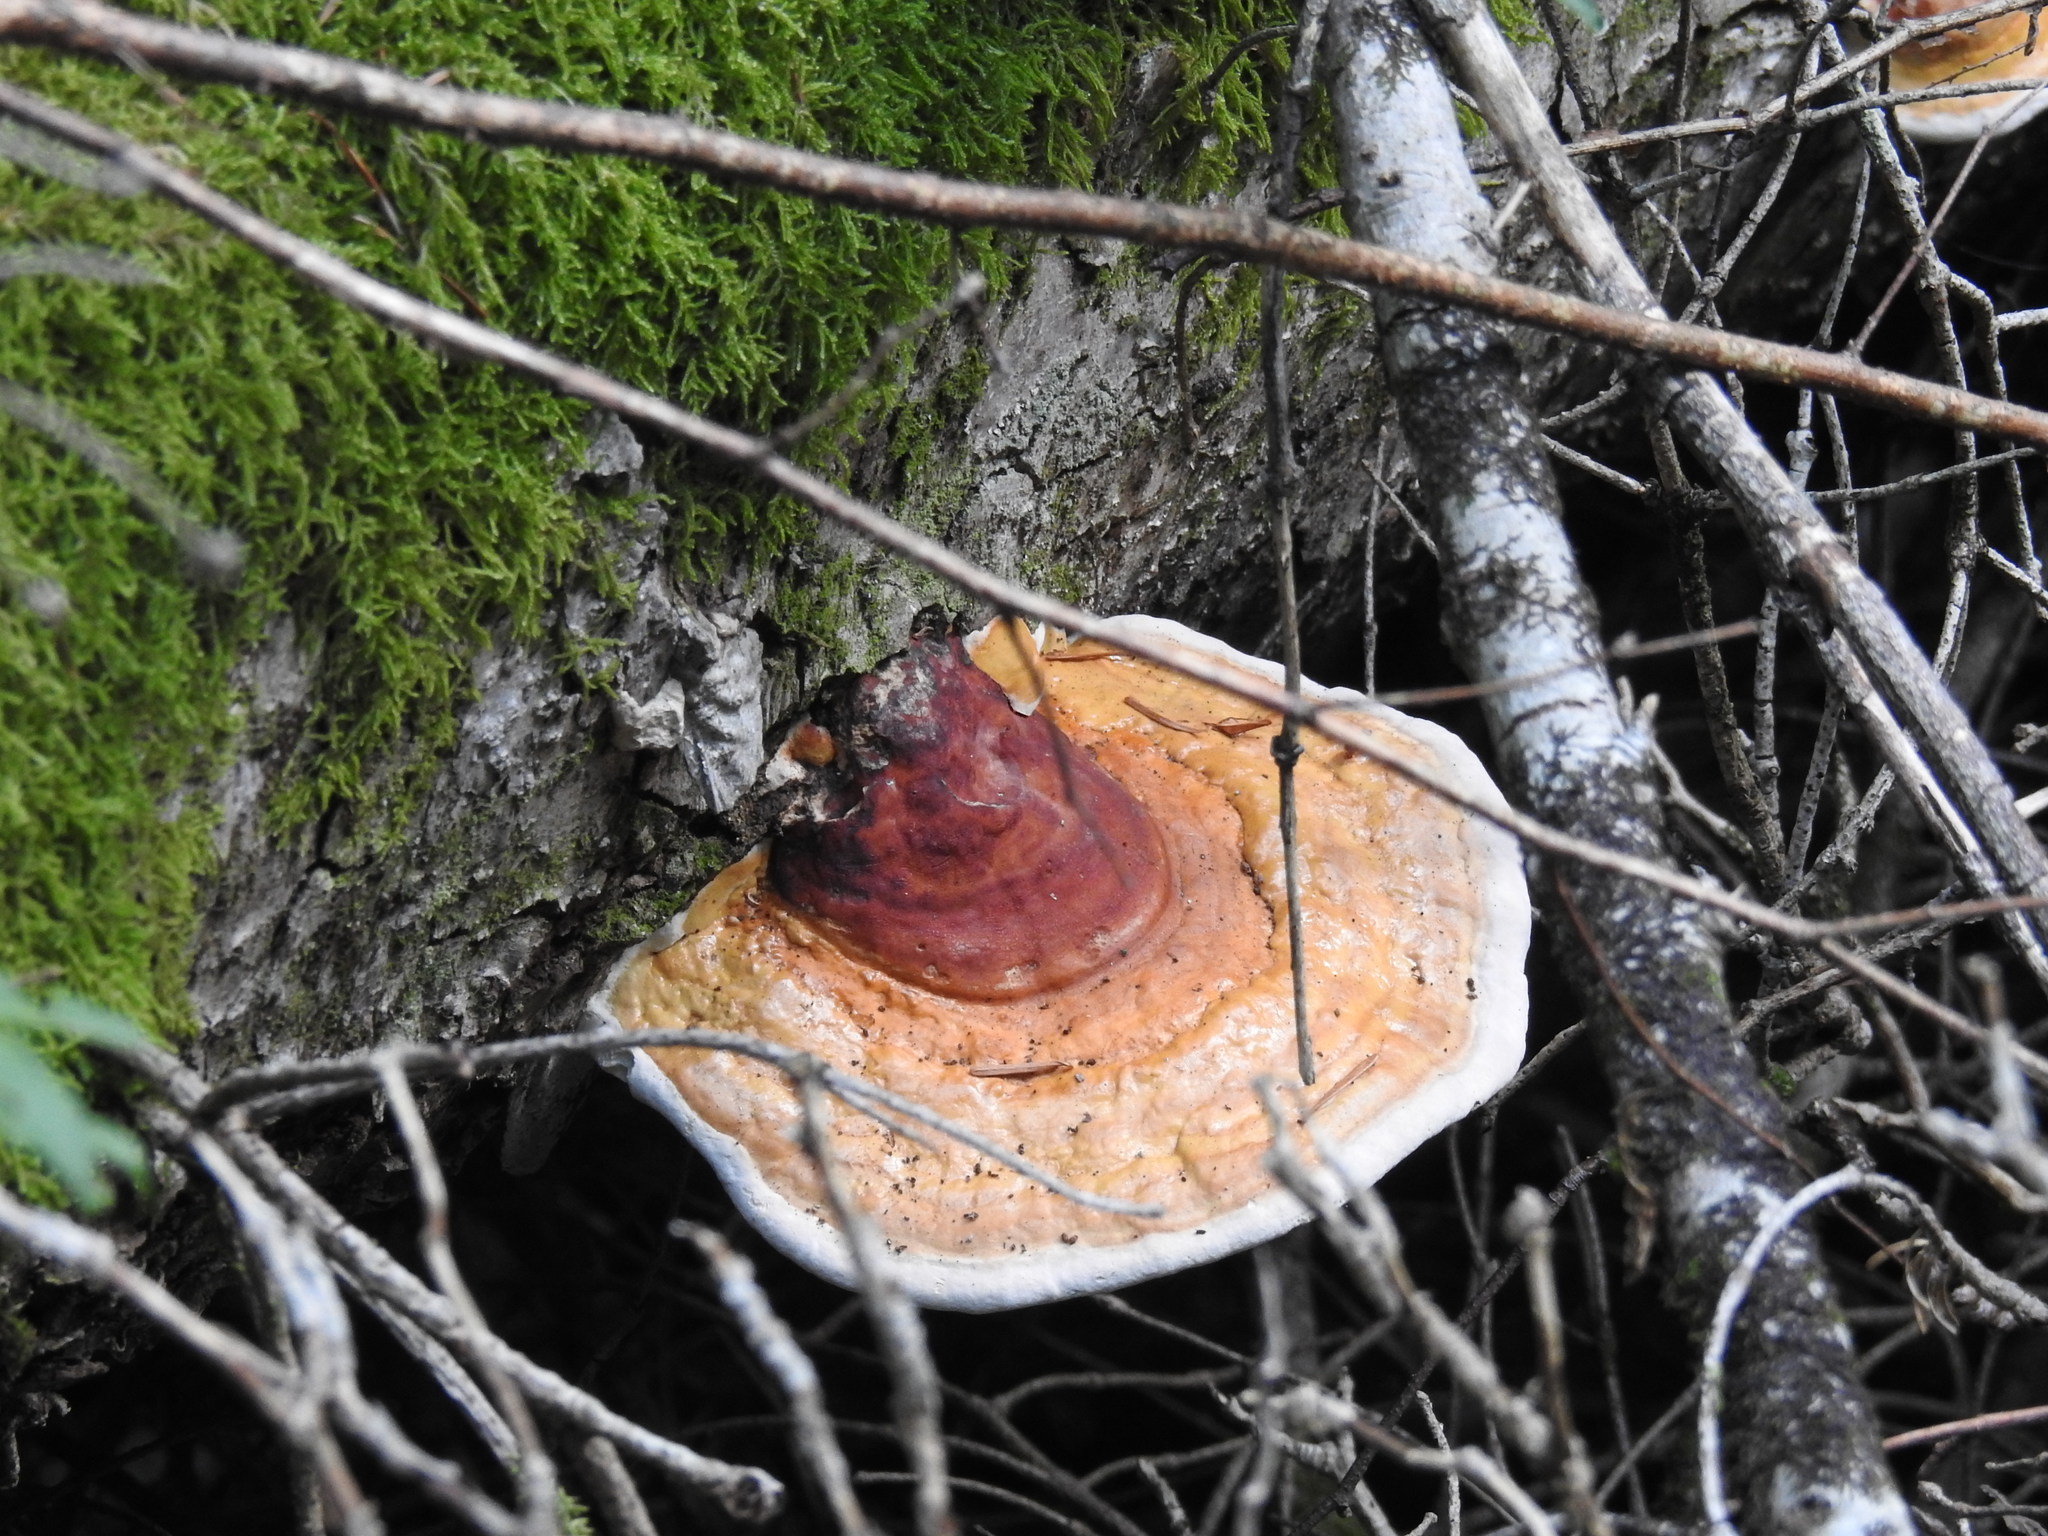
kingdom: Fungi
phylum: Basidiomycota
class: Agaricomycetes
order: Polyporales
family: Fomitopsidaceae
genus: Fomitopsis
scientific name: Fomitopsis pinicola
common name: Red-belted bracket
